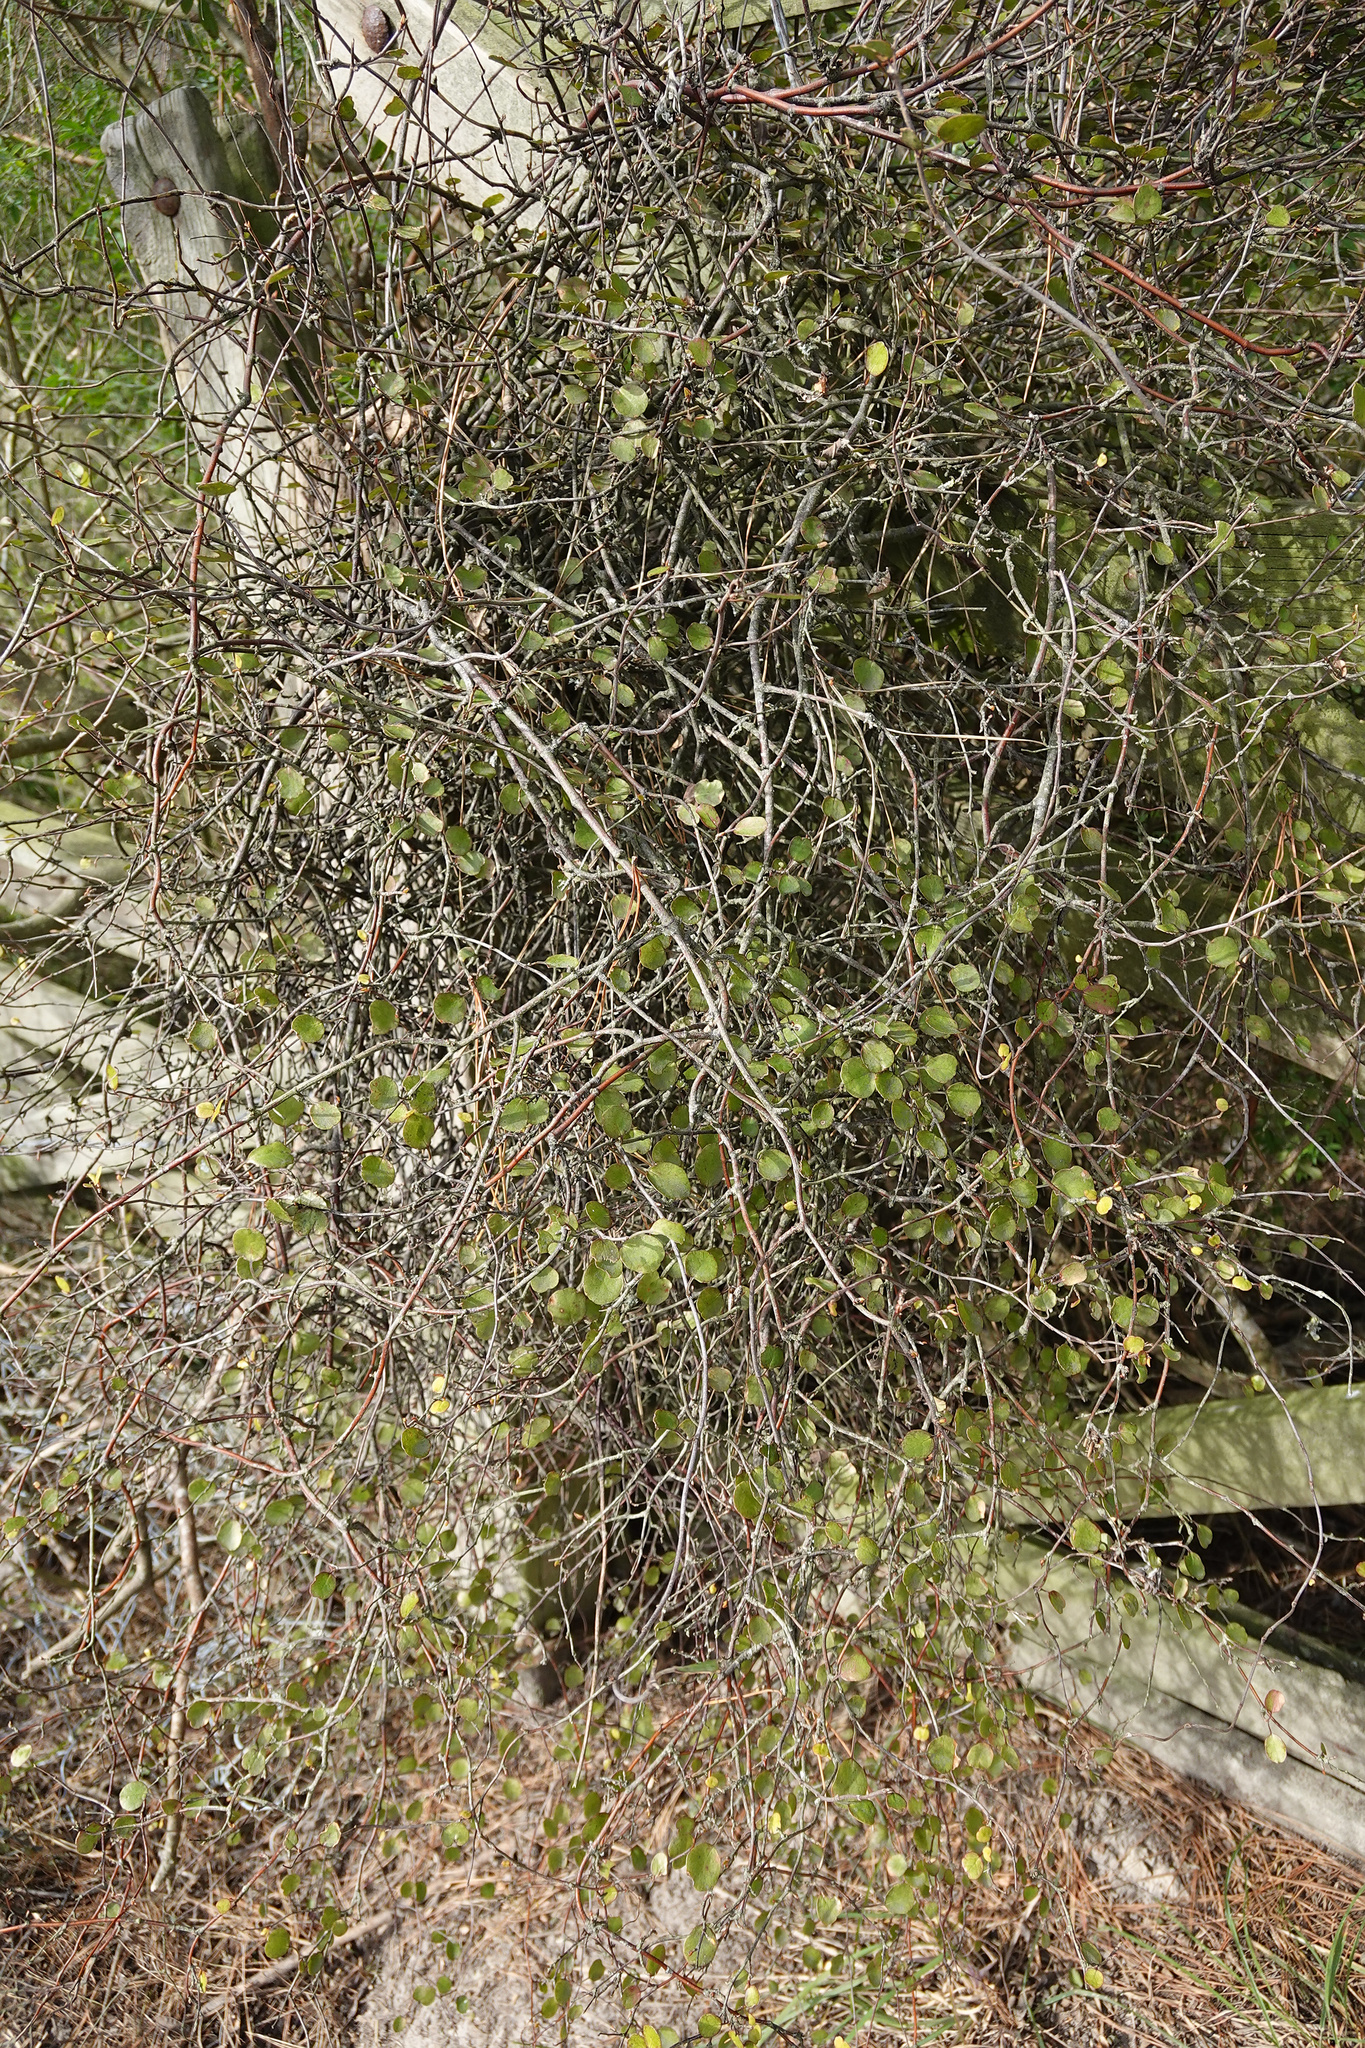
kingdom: Plantae
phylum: Tracheophyta
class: Magnoliopsida
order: Caryophyllales
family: Polygonaceae
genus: Muehlenbeckia
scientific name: Muehlenbeckia complexa
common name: Wireplant
